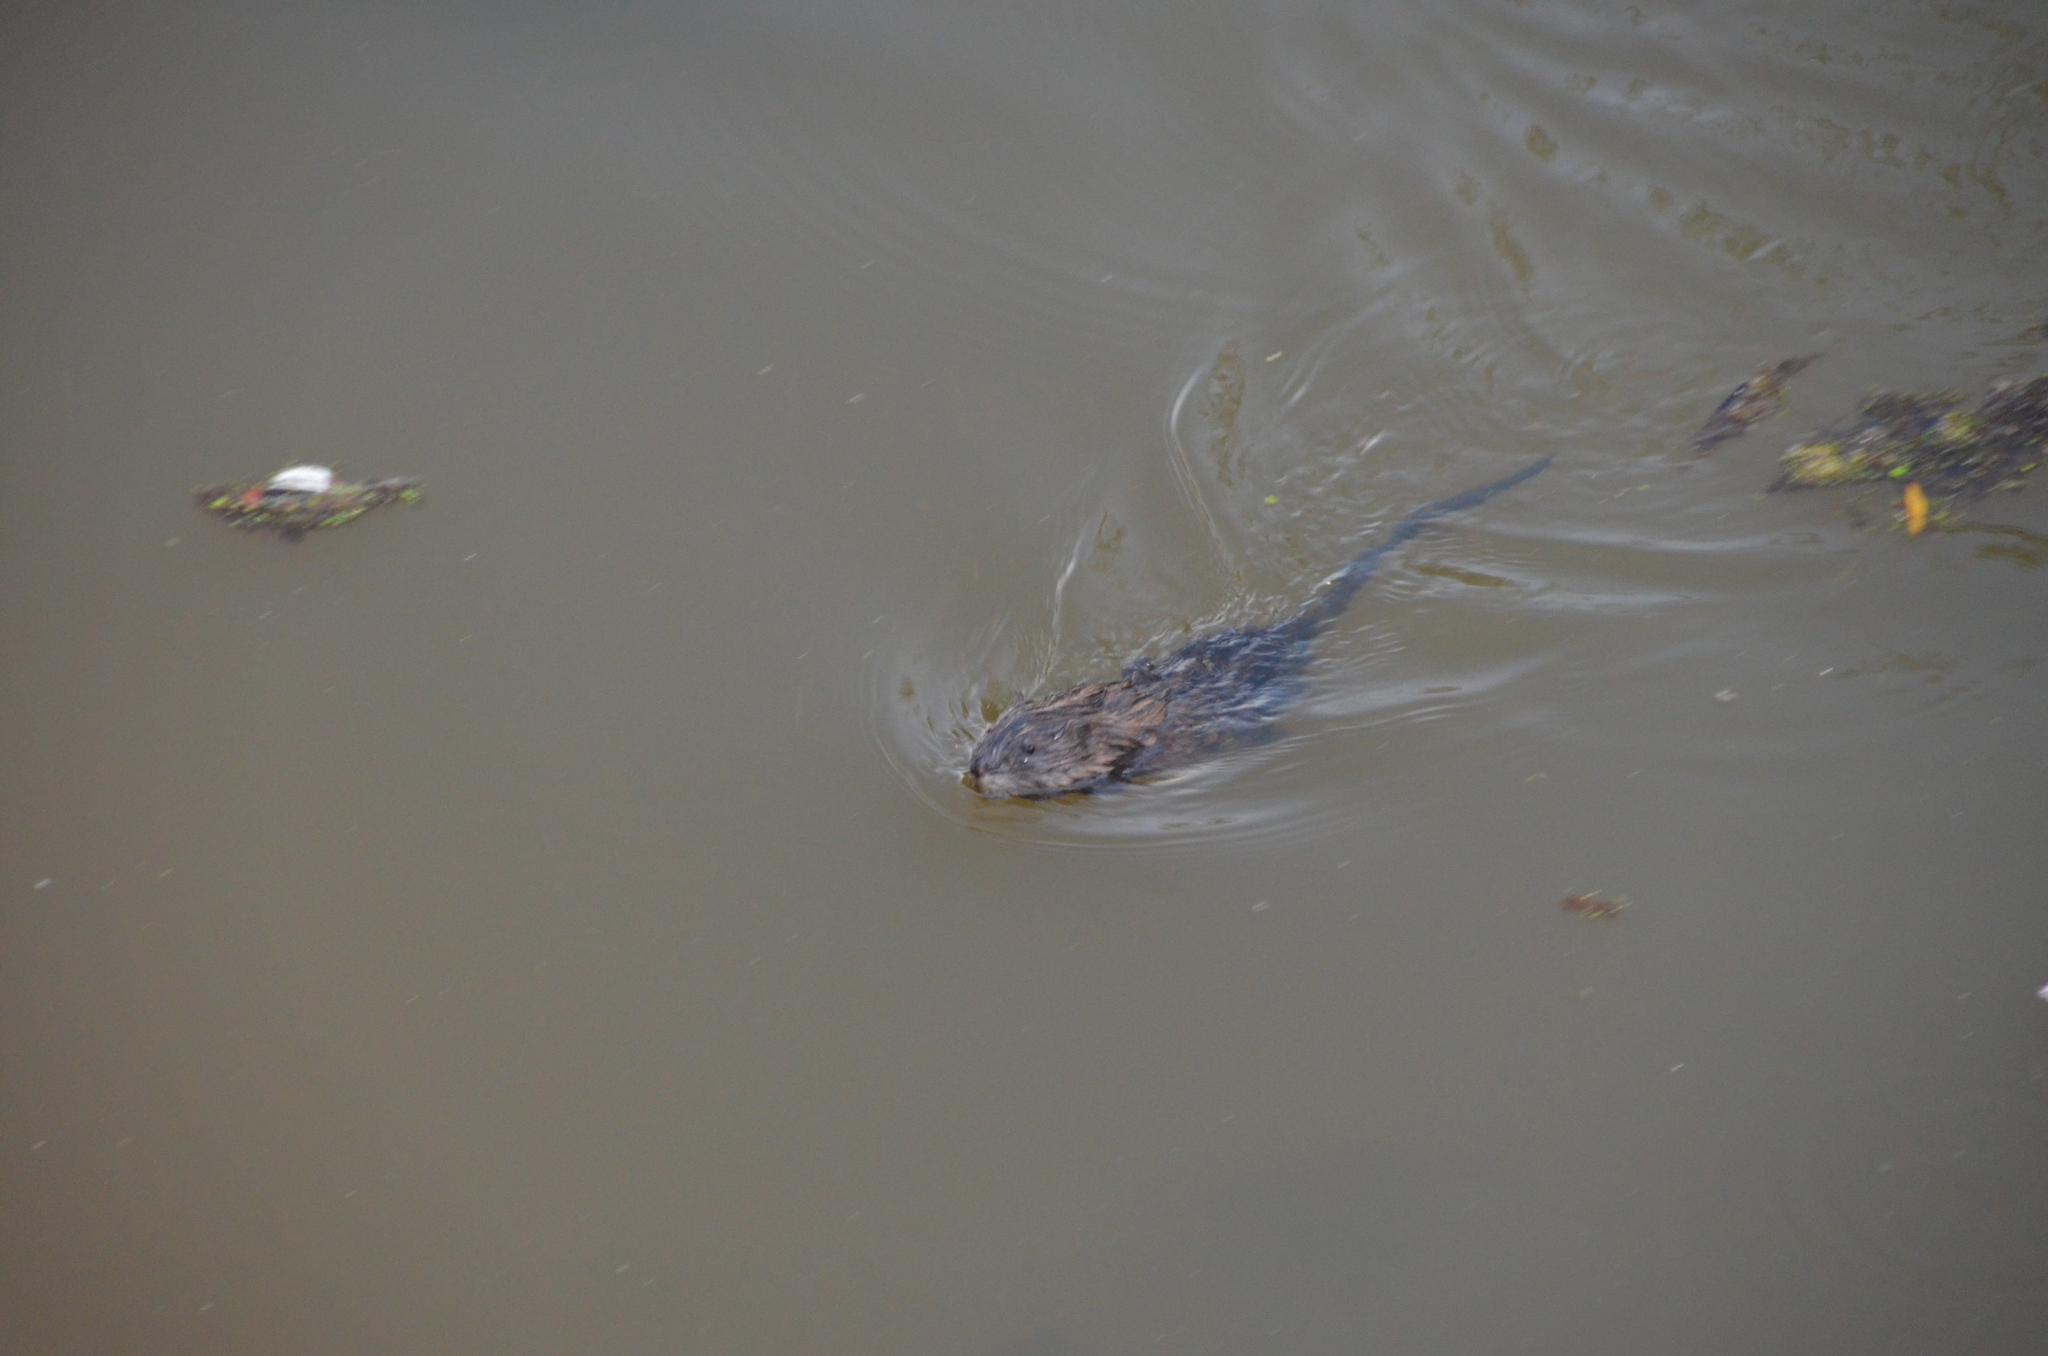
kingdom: Animalia
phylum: Chordata
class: Mammalia
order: Rodentia
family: Cricetidae
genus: Ondatra
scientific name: Ondatra zibethicus
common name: Muskrat
